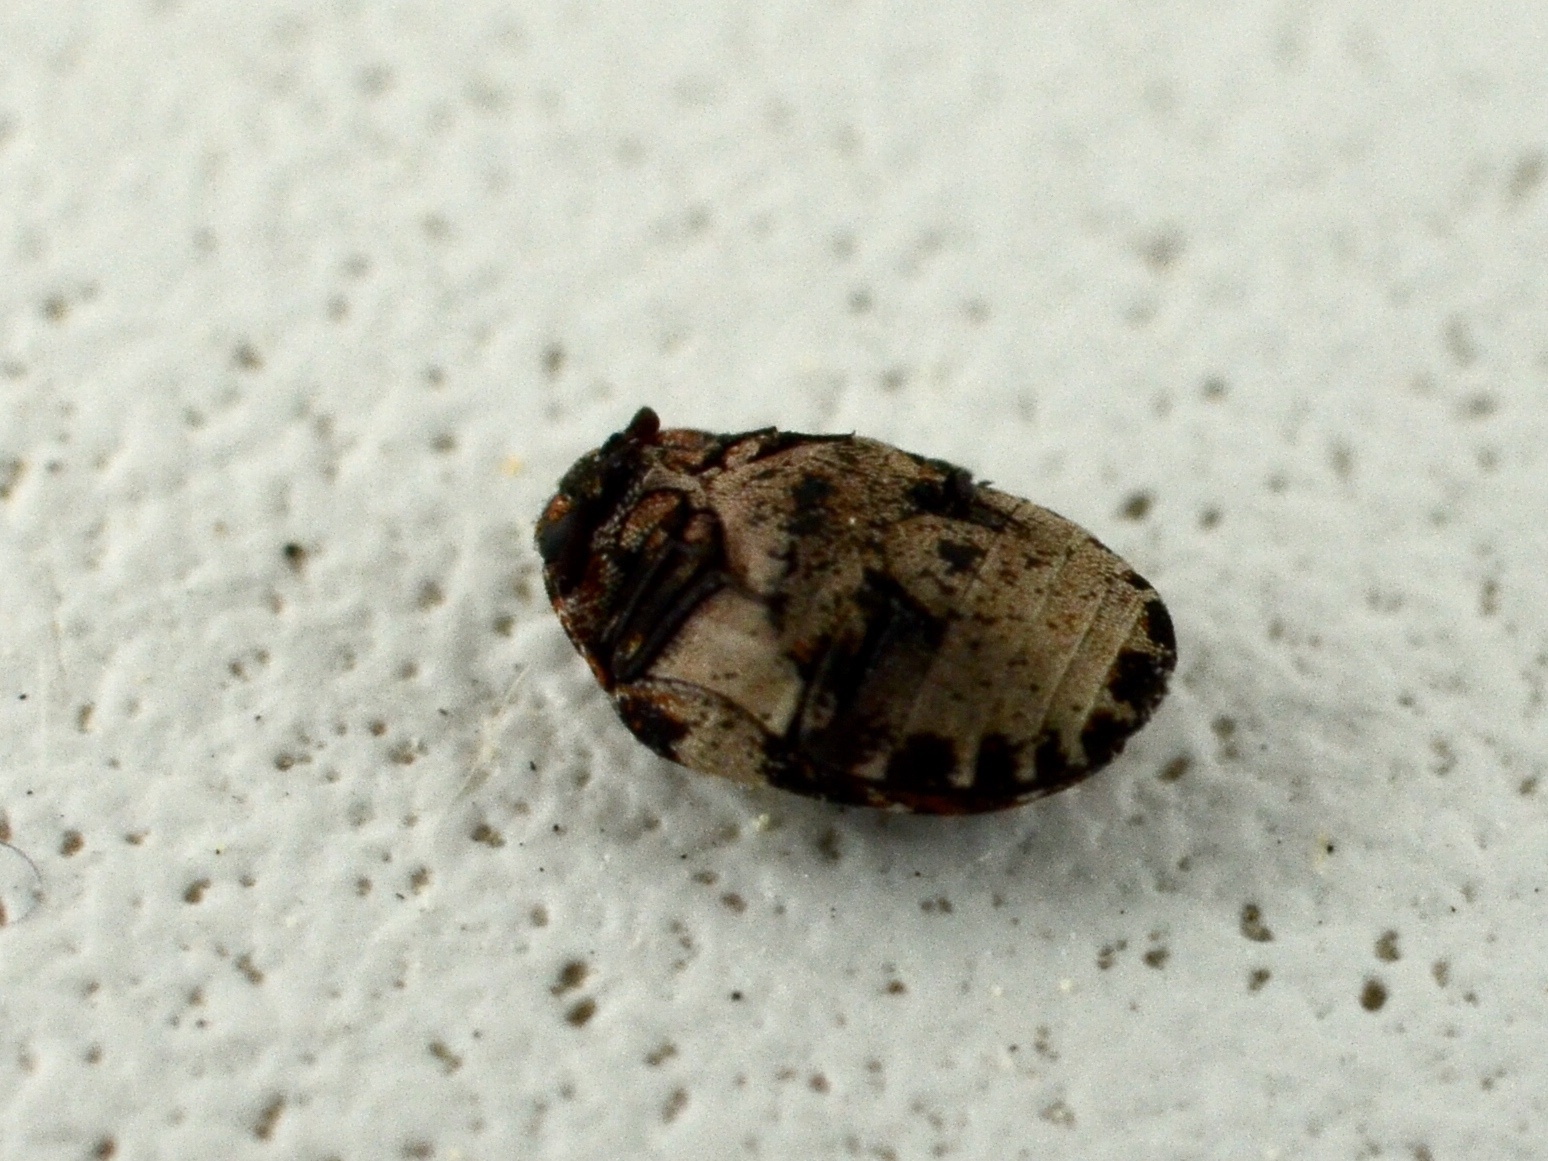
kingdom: Animalia
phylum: Arthropoda
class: Insecta
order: Coleoptera
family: Dermestidae
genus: Anthrenus
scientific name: Anthrenus pimpinellae
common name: Dermestid beetle
